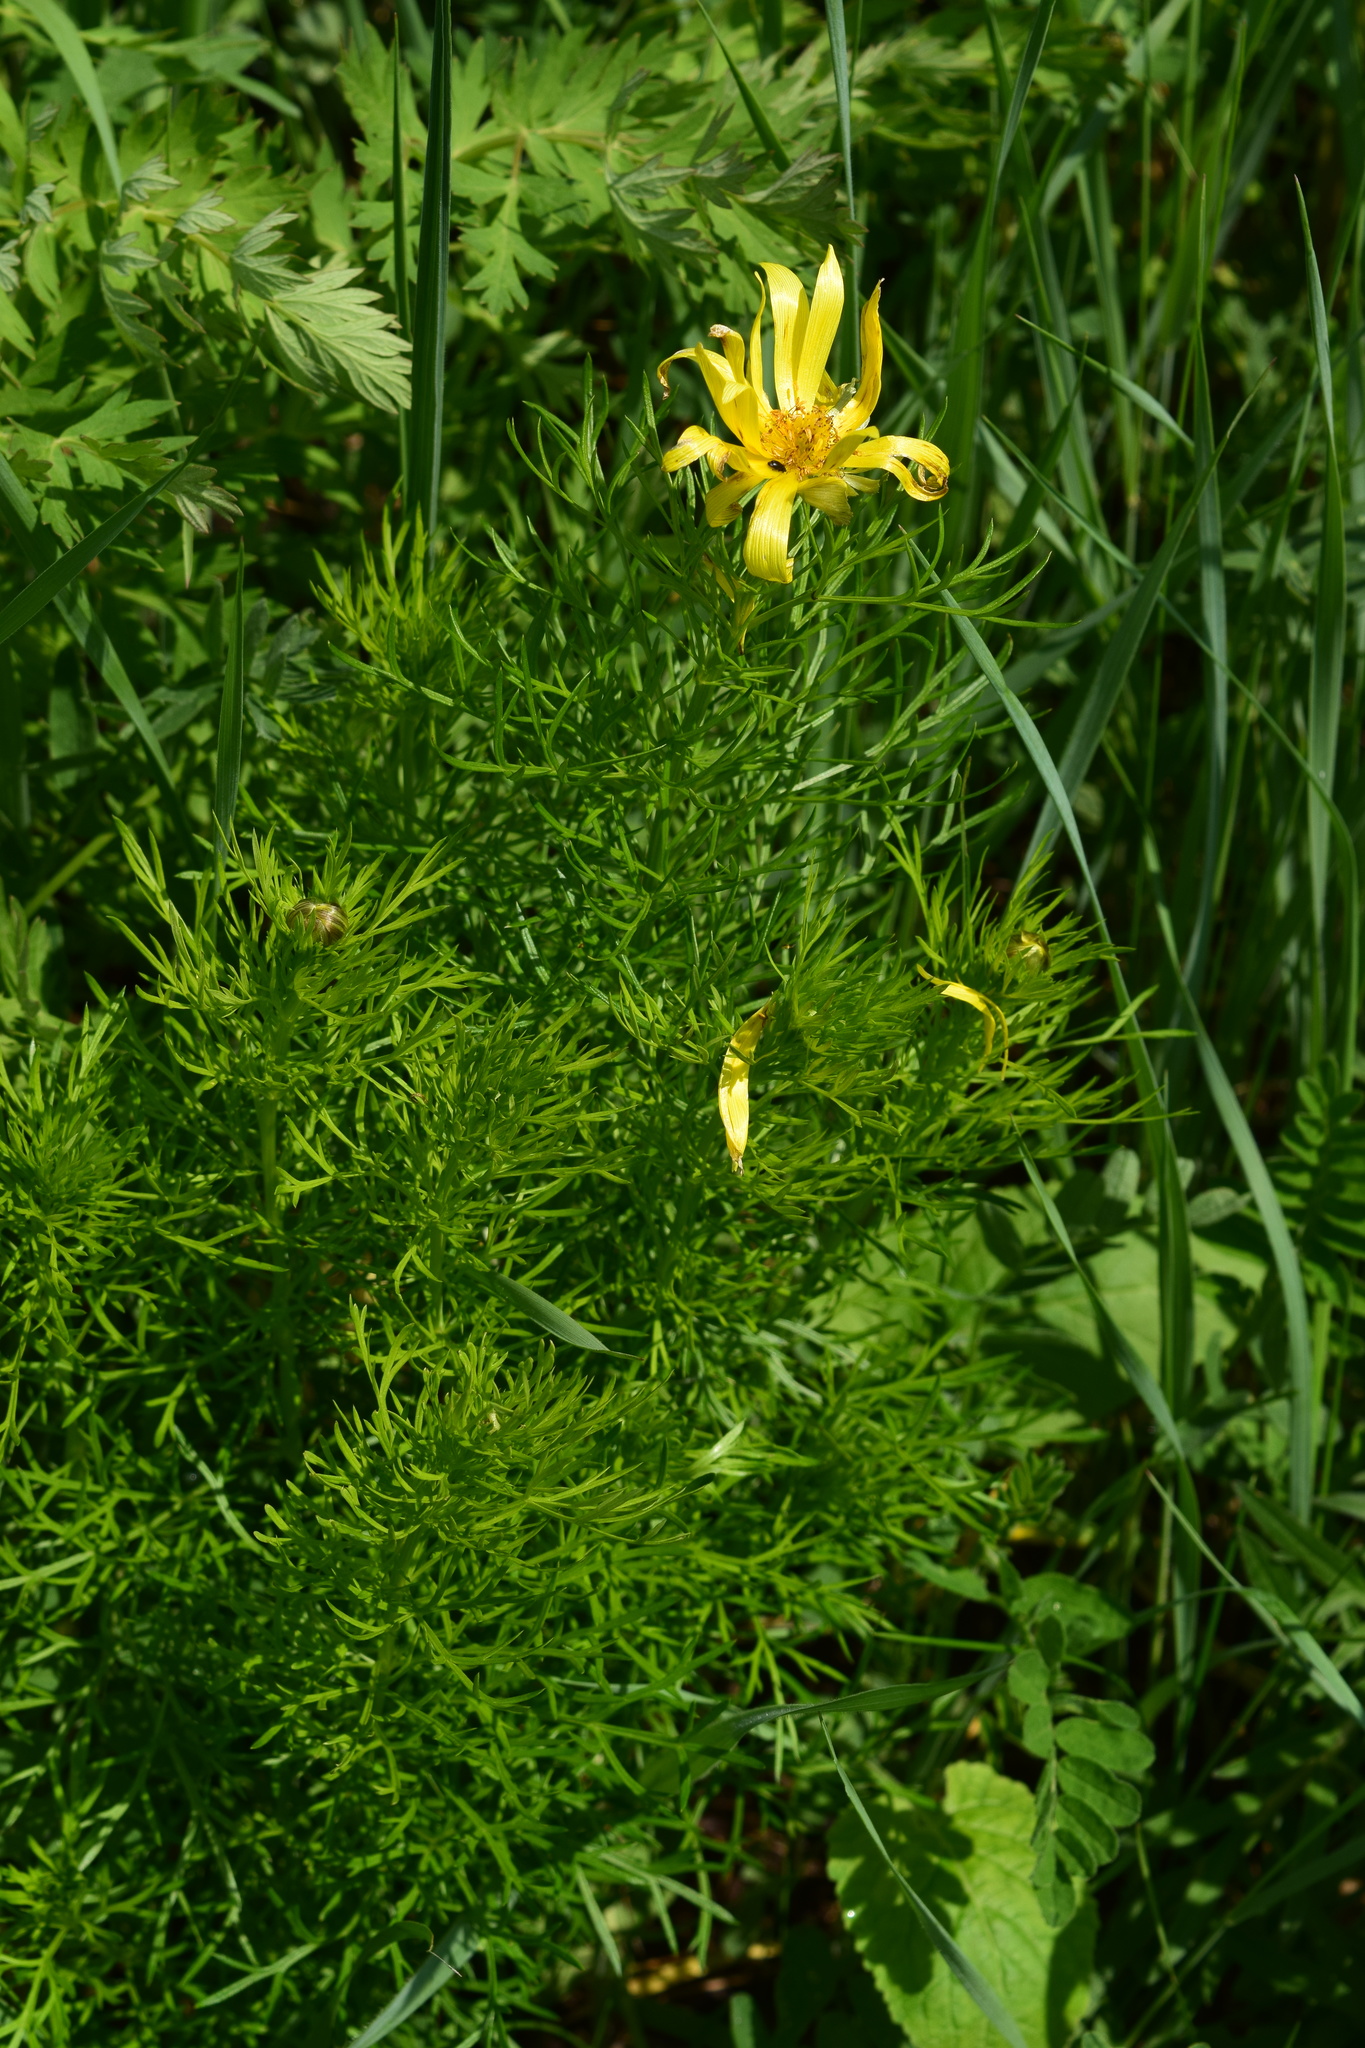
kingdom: Plantae
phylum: Tracheophyta
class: Magnoliopsida
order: Ranunculales
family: Ranunculaceae
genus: Adonis
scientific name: Adonis vernalis
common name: Yellow pheasants-eye
